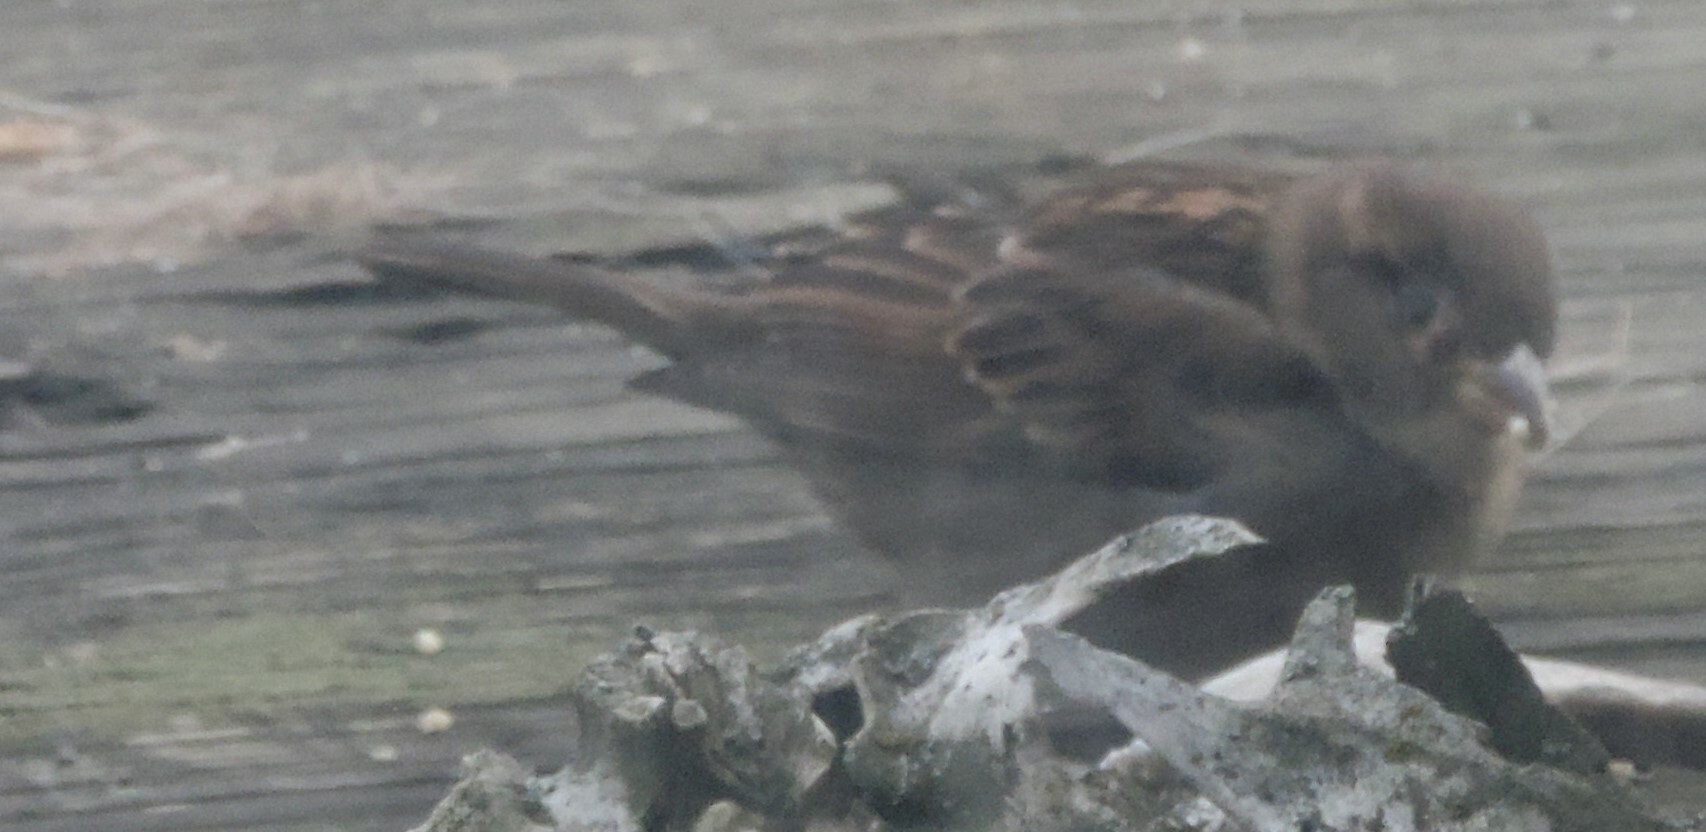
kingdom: Animalia
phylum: Chordata
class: Aves
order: Passeriformes
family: Passeridae
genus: Passer
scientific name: Passer domesticus
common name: House sparrow
